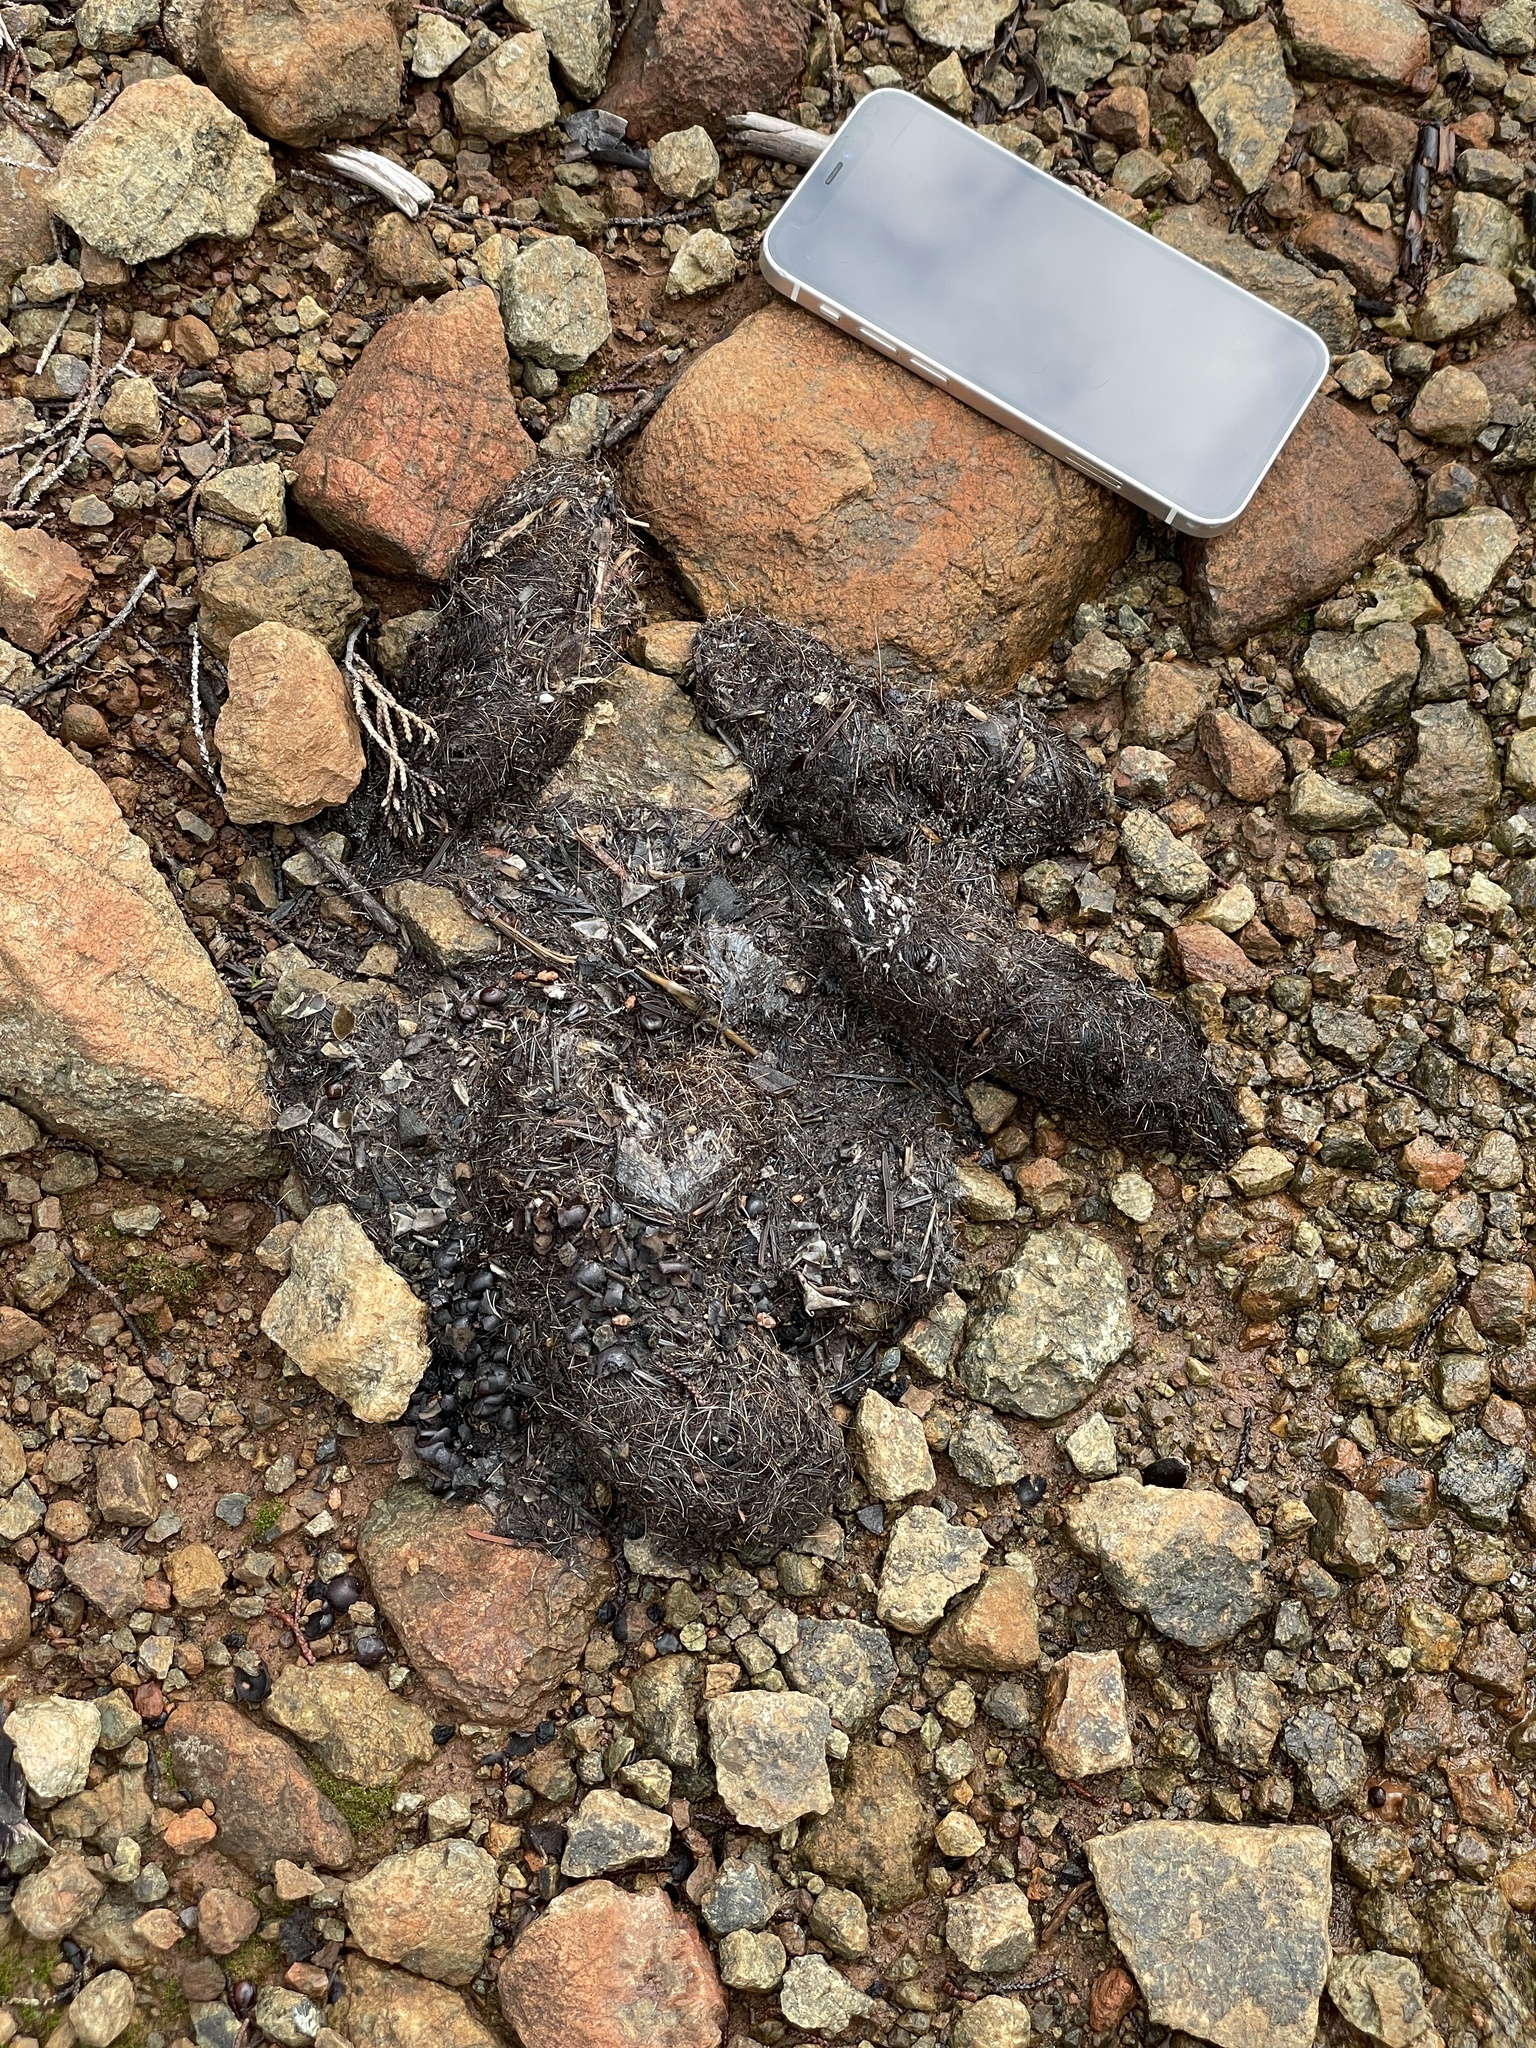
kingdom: Animalia
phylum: Chordata
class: Mammalia
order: Carnivora
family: Ursidae
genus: Ursus
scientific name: Ursus americanus
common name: American black bear
